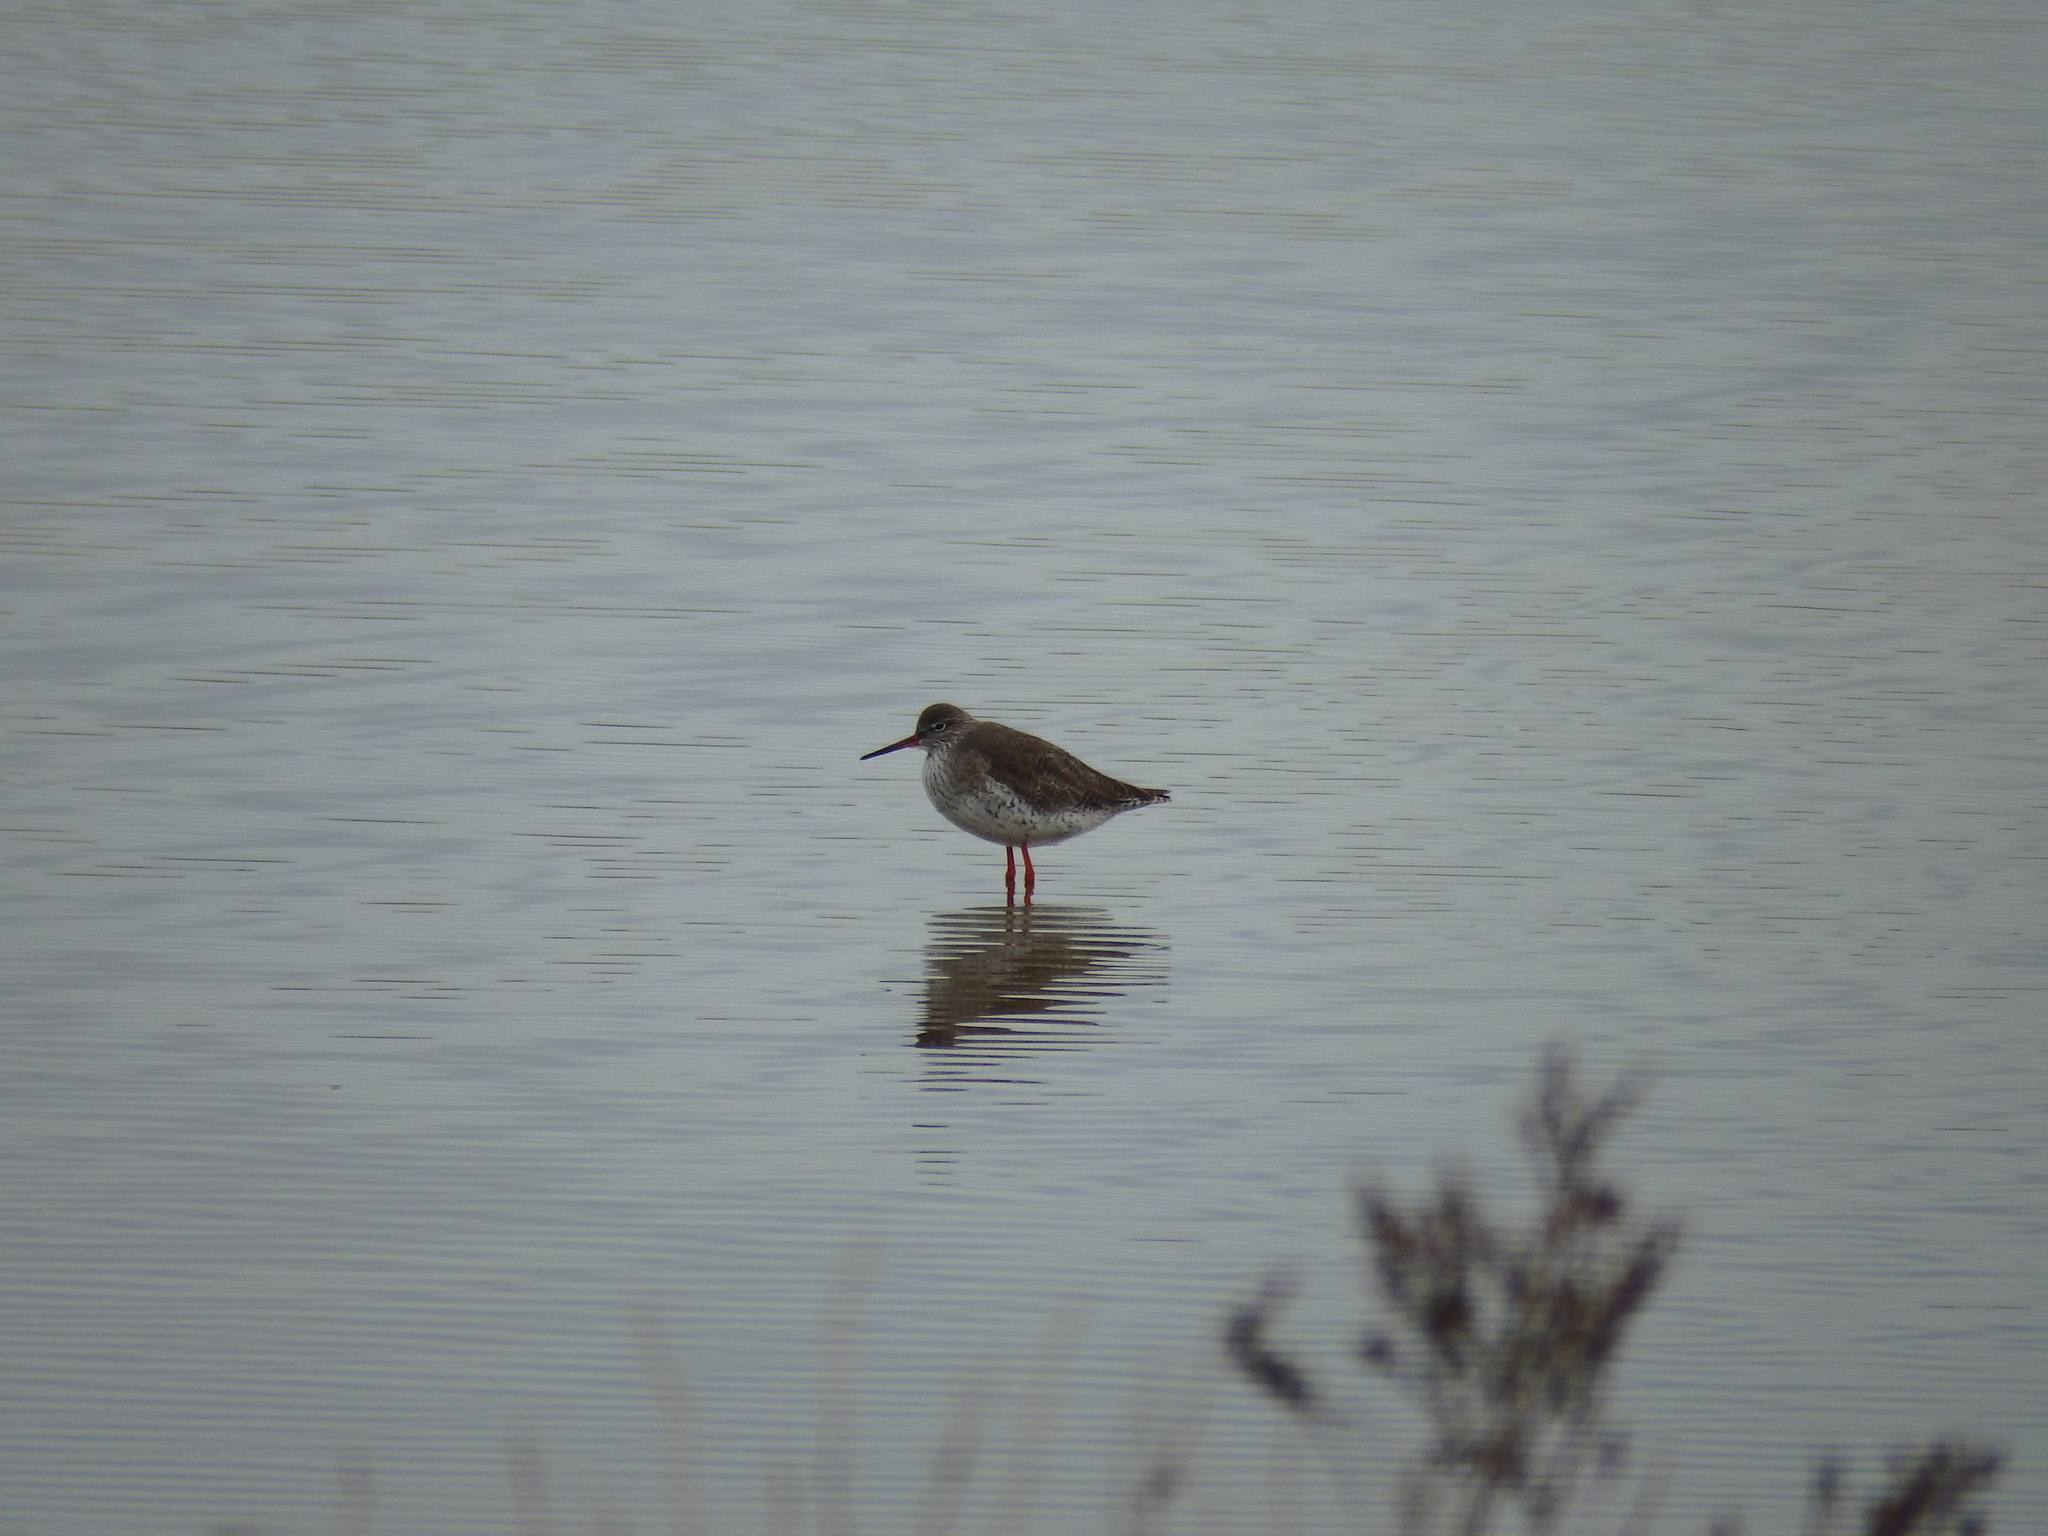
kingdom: Animalia
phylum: Chordata
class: Aves
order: Charadriiformes
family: Scolopacidae
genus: Tringa
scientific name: Tringa totanus
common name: Common redshank
